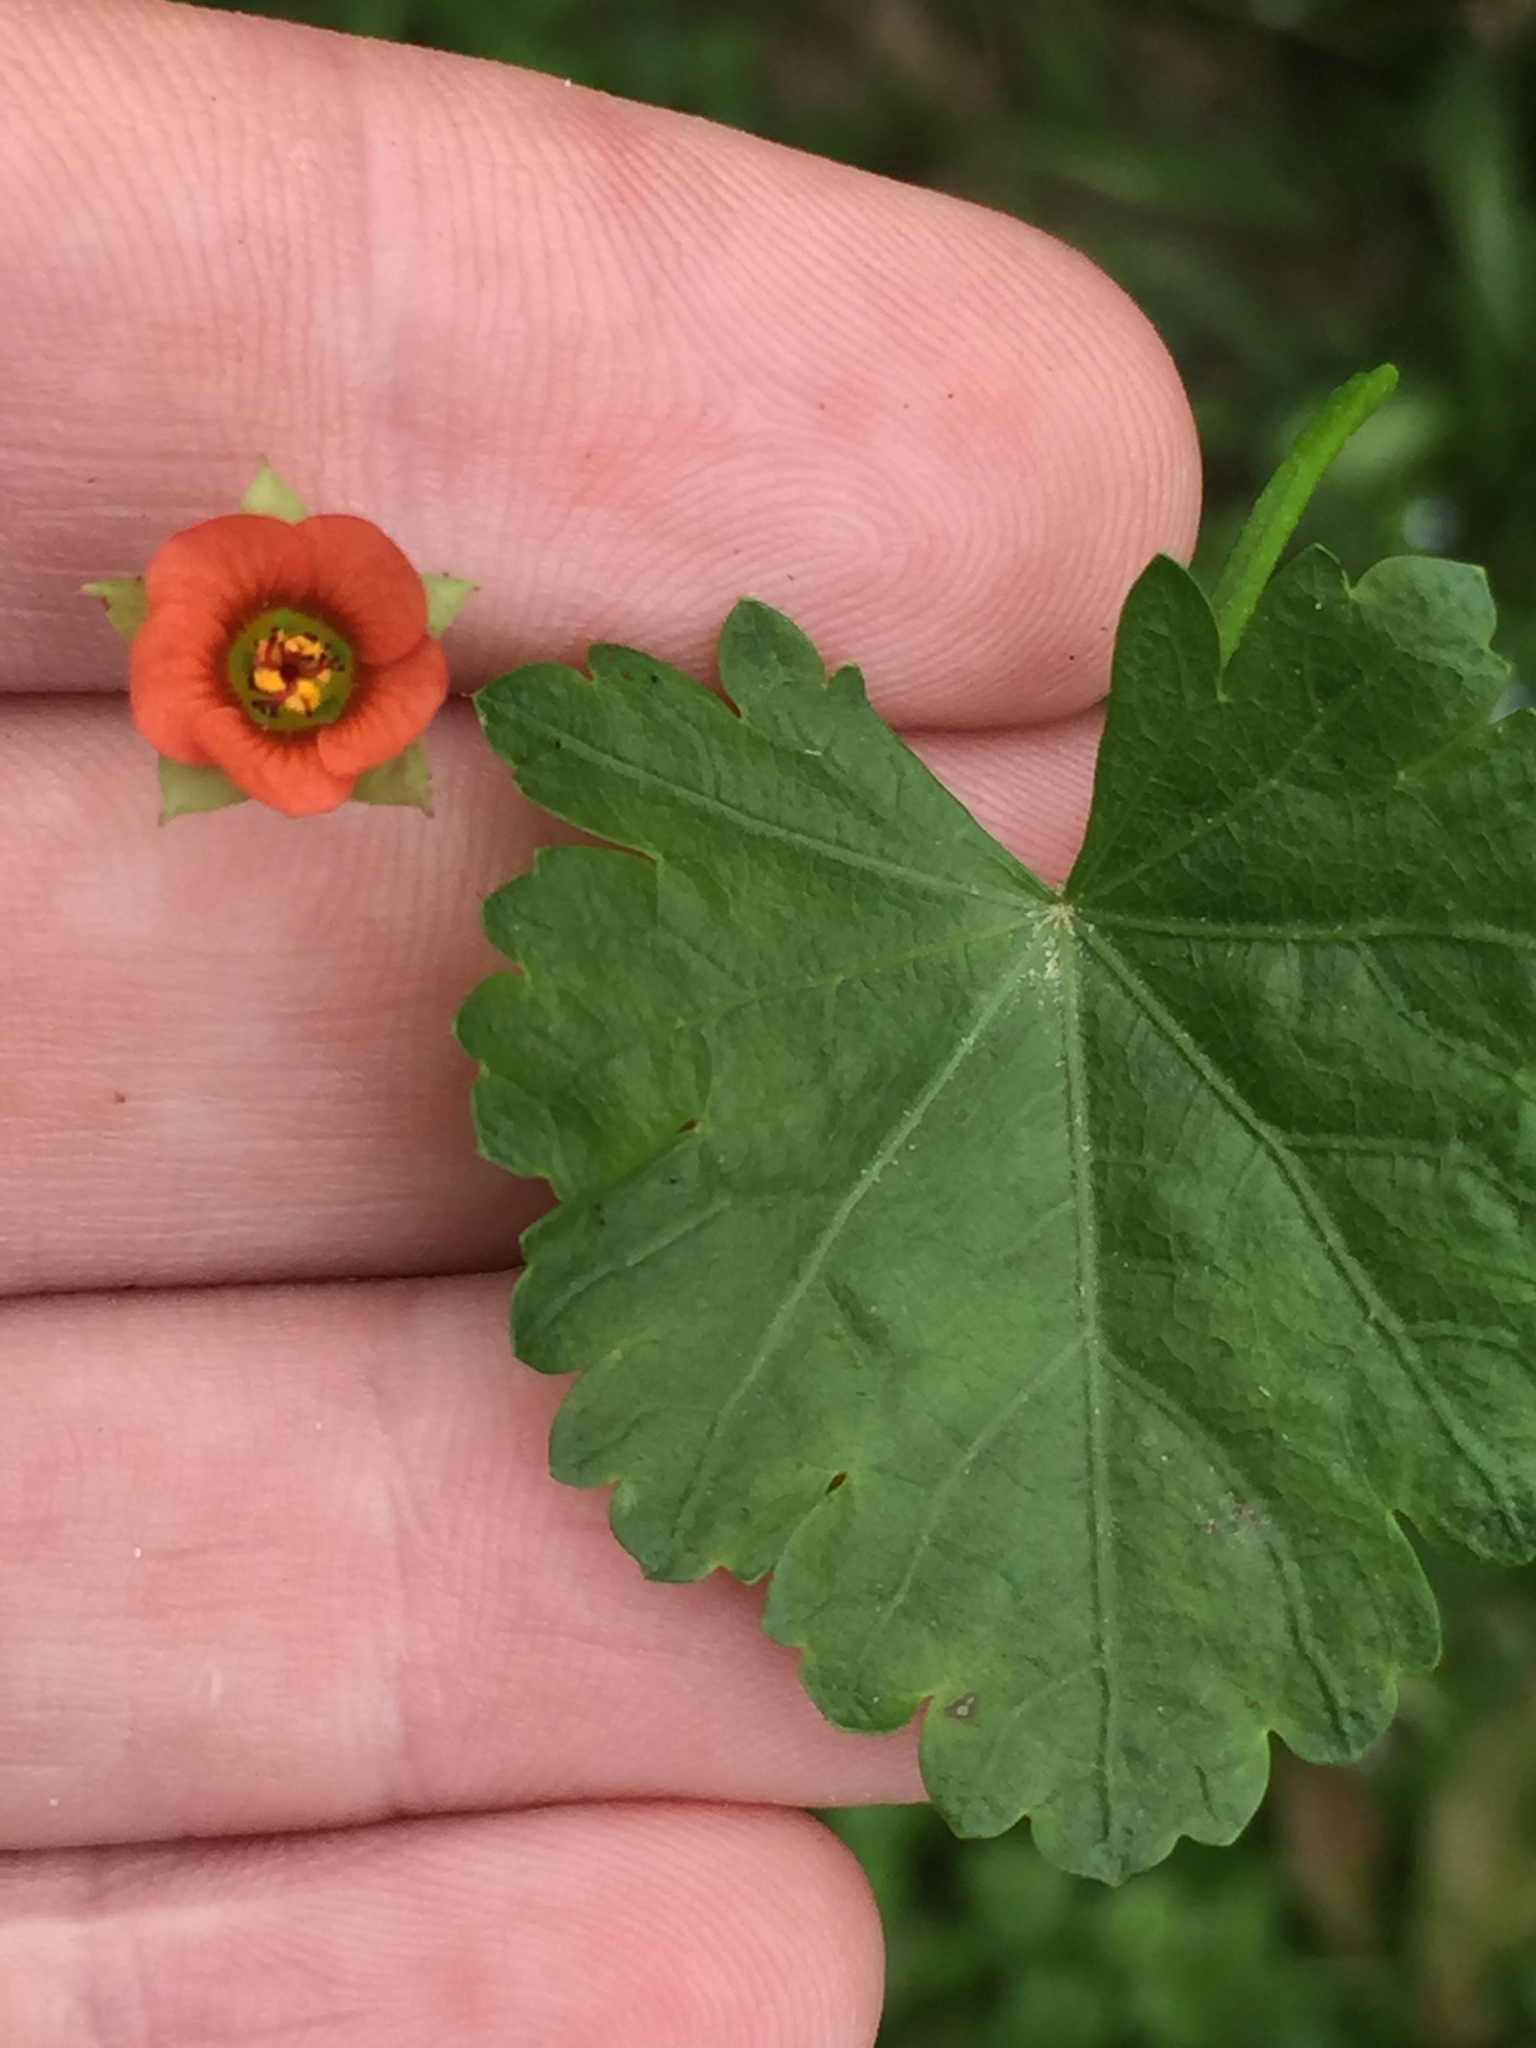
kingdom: Plantae
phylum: Tracheophyta
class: Magnoliopsida
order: Malvales
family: Malvaceae
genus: Modiola
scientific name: Modiola caroliniana
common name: Carolina bristlemallow
